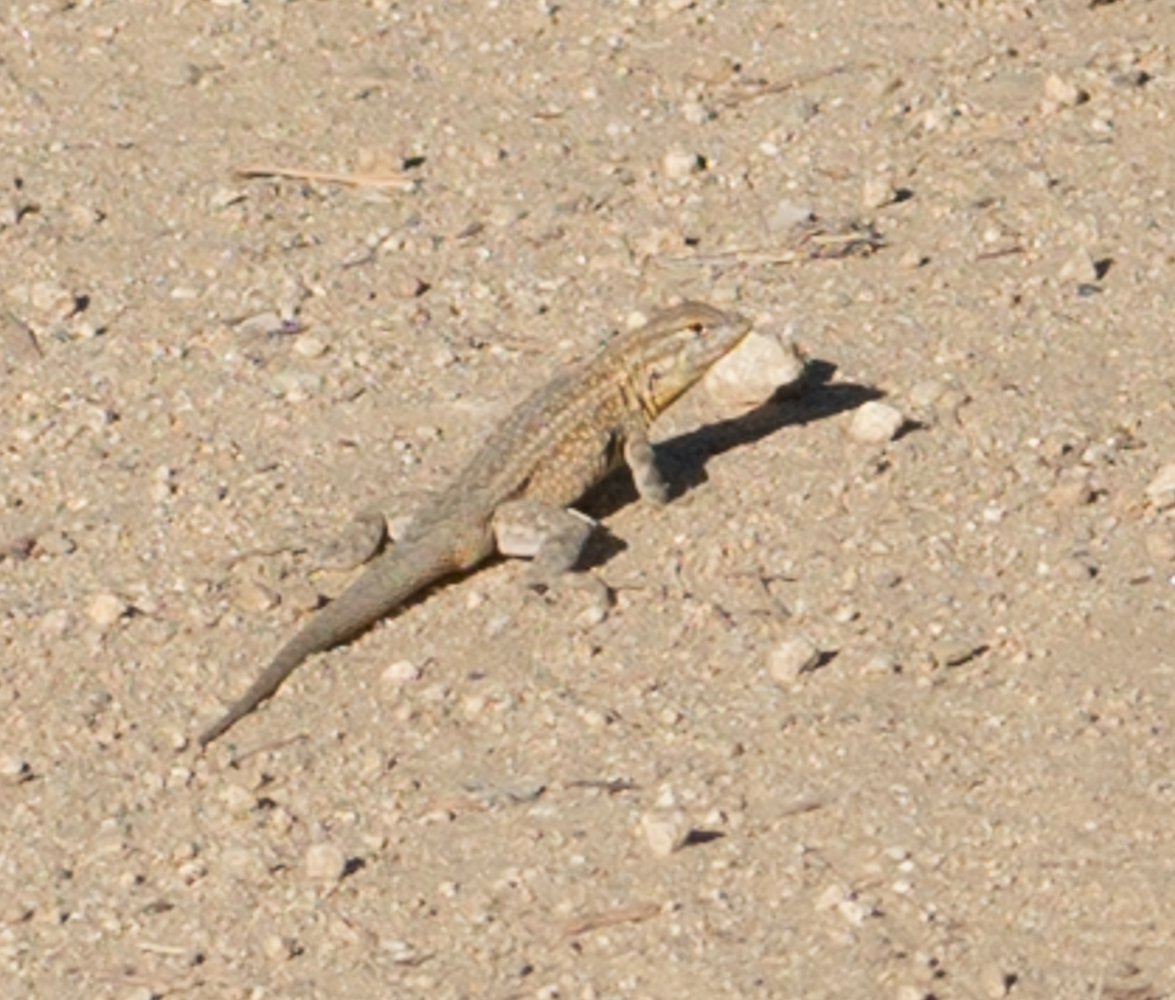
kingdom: Animalia
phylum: Chordata
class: Squamata
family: Phrynosomatidae
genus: Uta
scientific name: Uta stansburiana
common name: Side-blotched lizard
